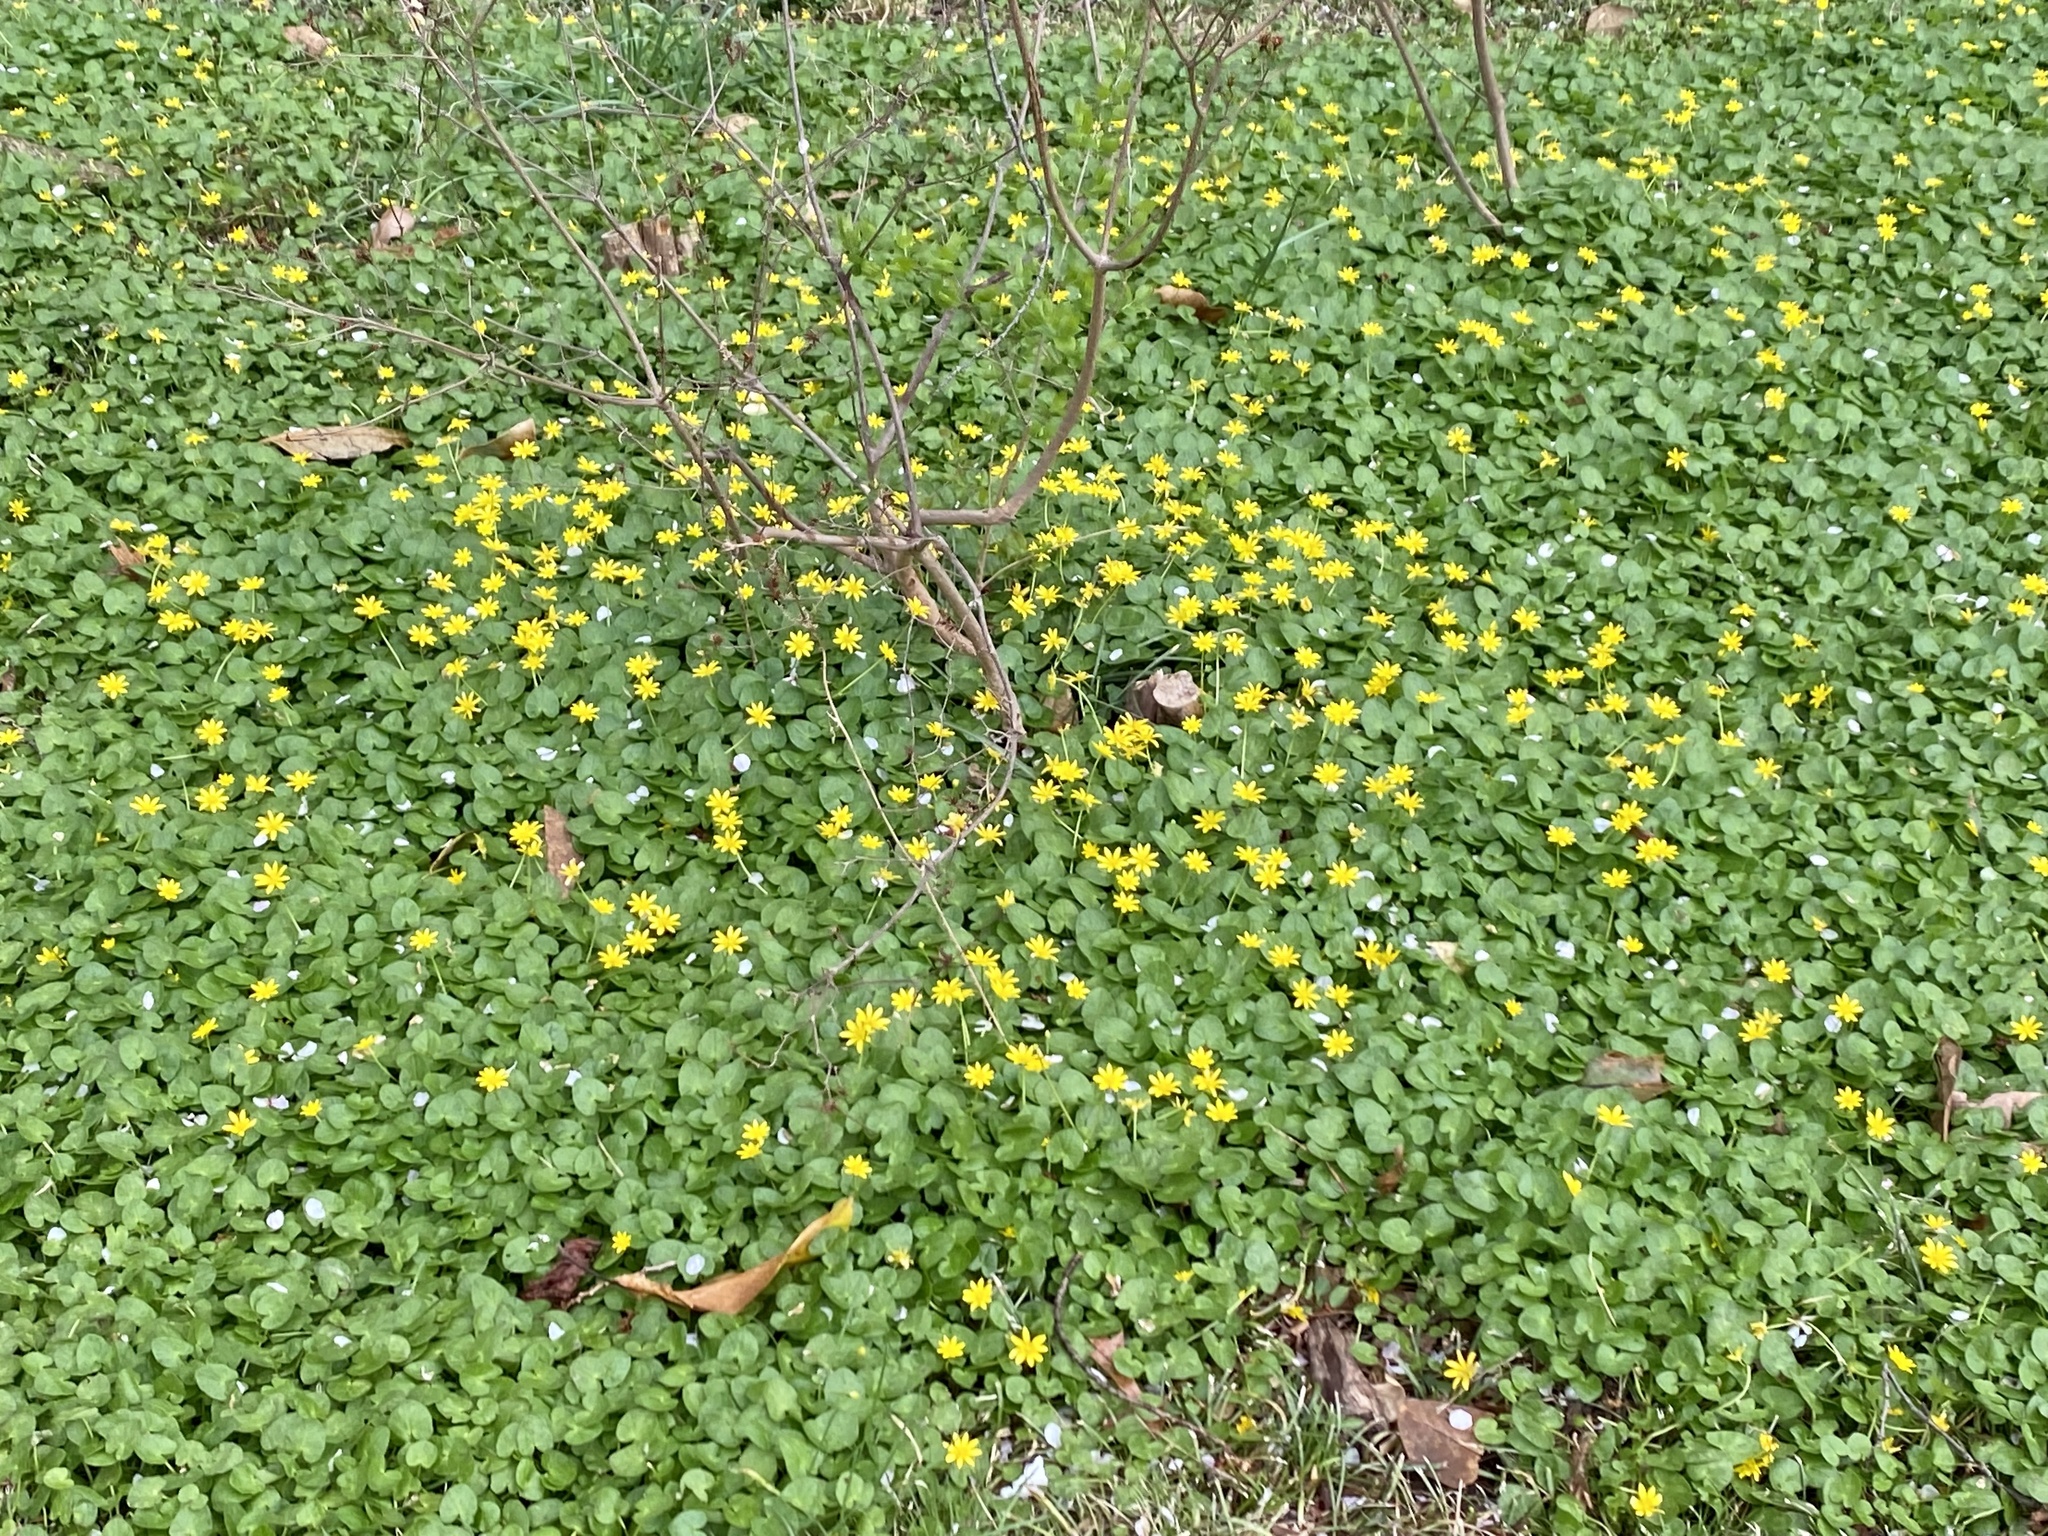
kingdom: Plantae
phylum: Tracheophyta
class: Magnoliopsida
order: Ranunculales
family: Ranunculaceae
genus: Ficaria
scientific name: Ficaria verna
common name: Lesser celandine
